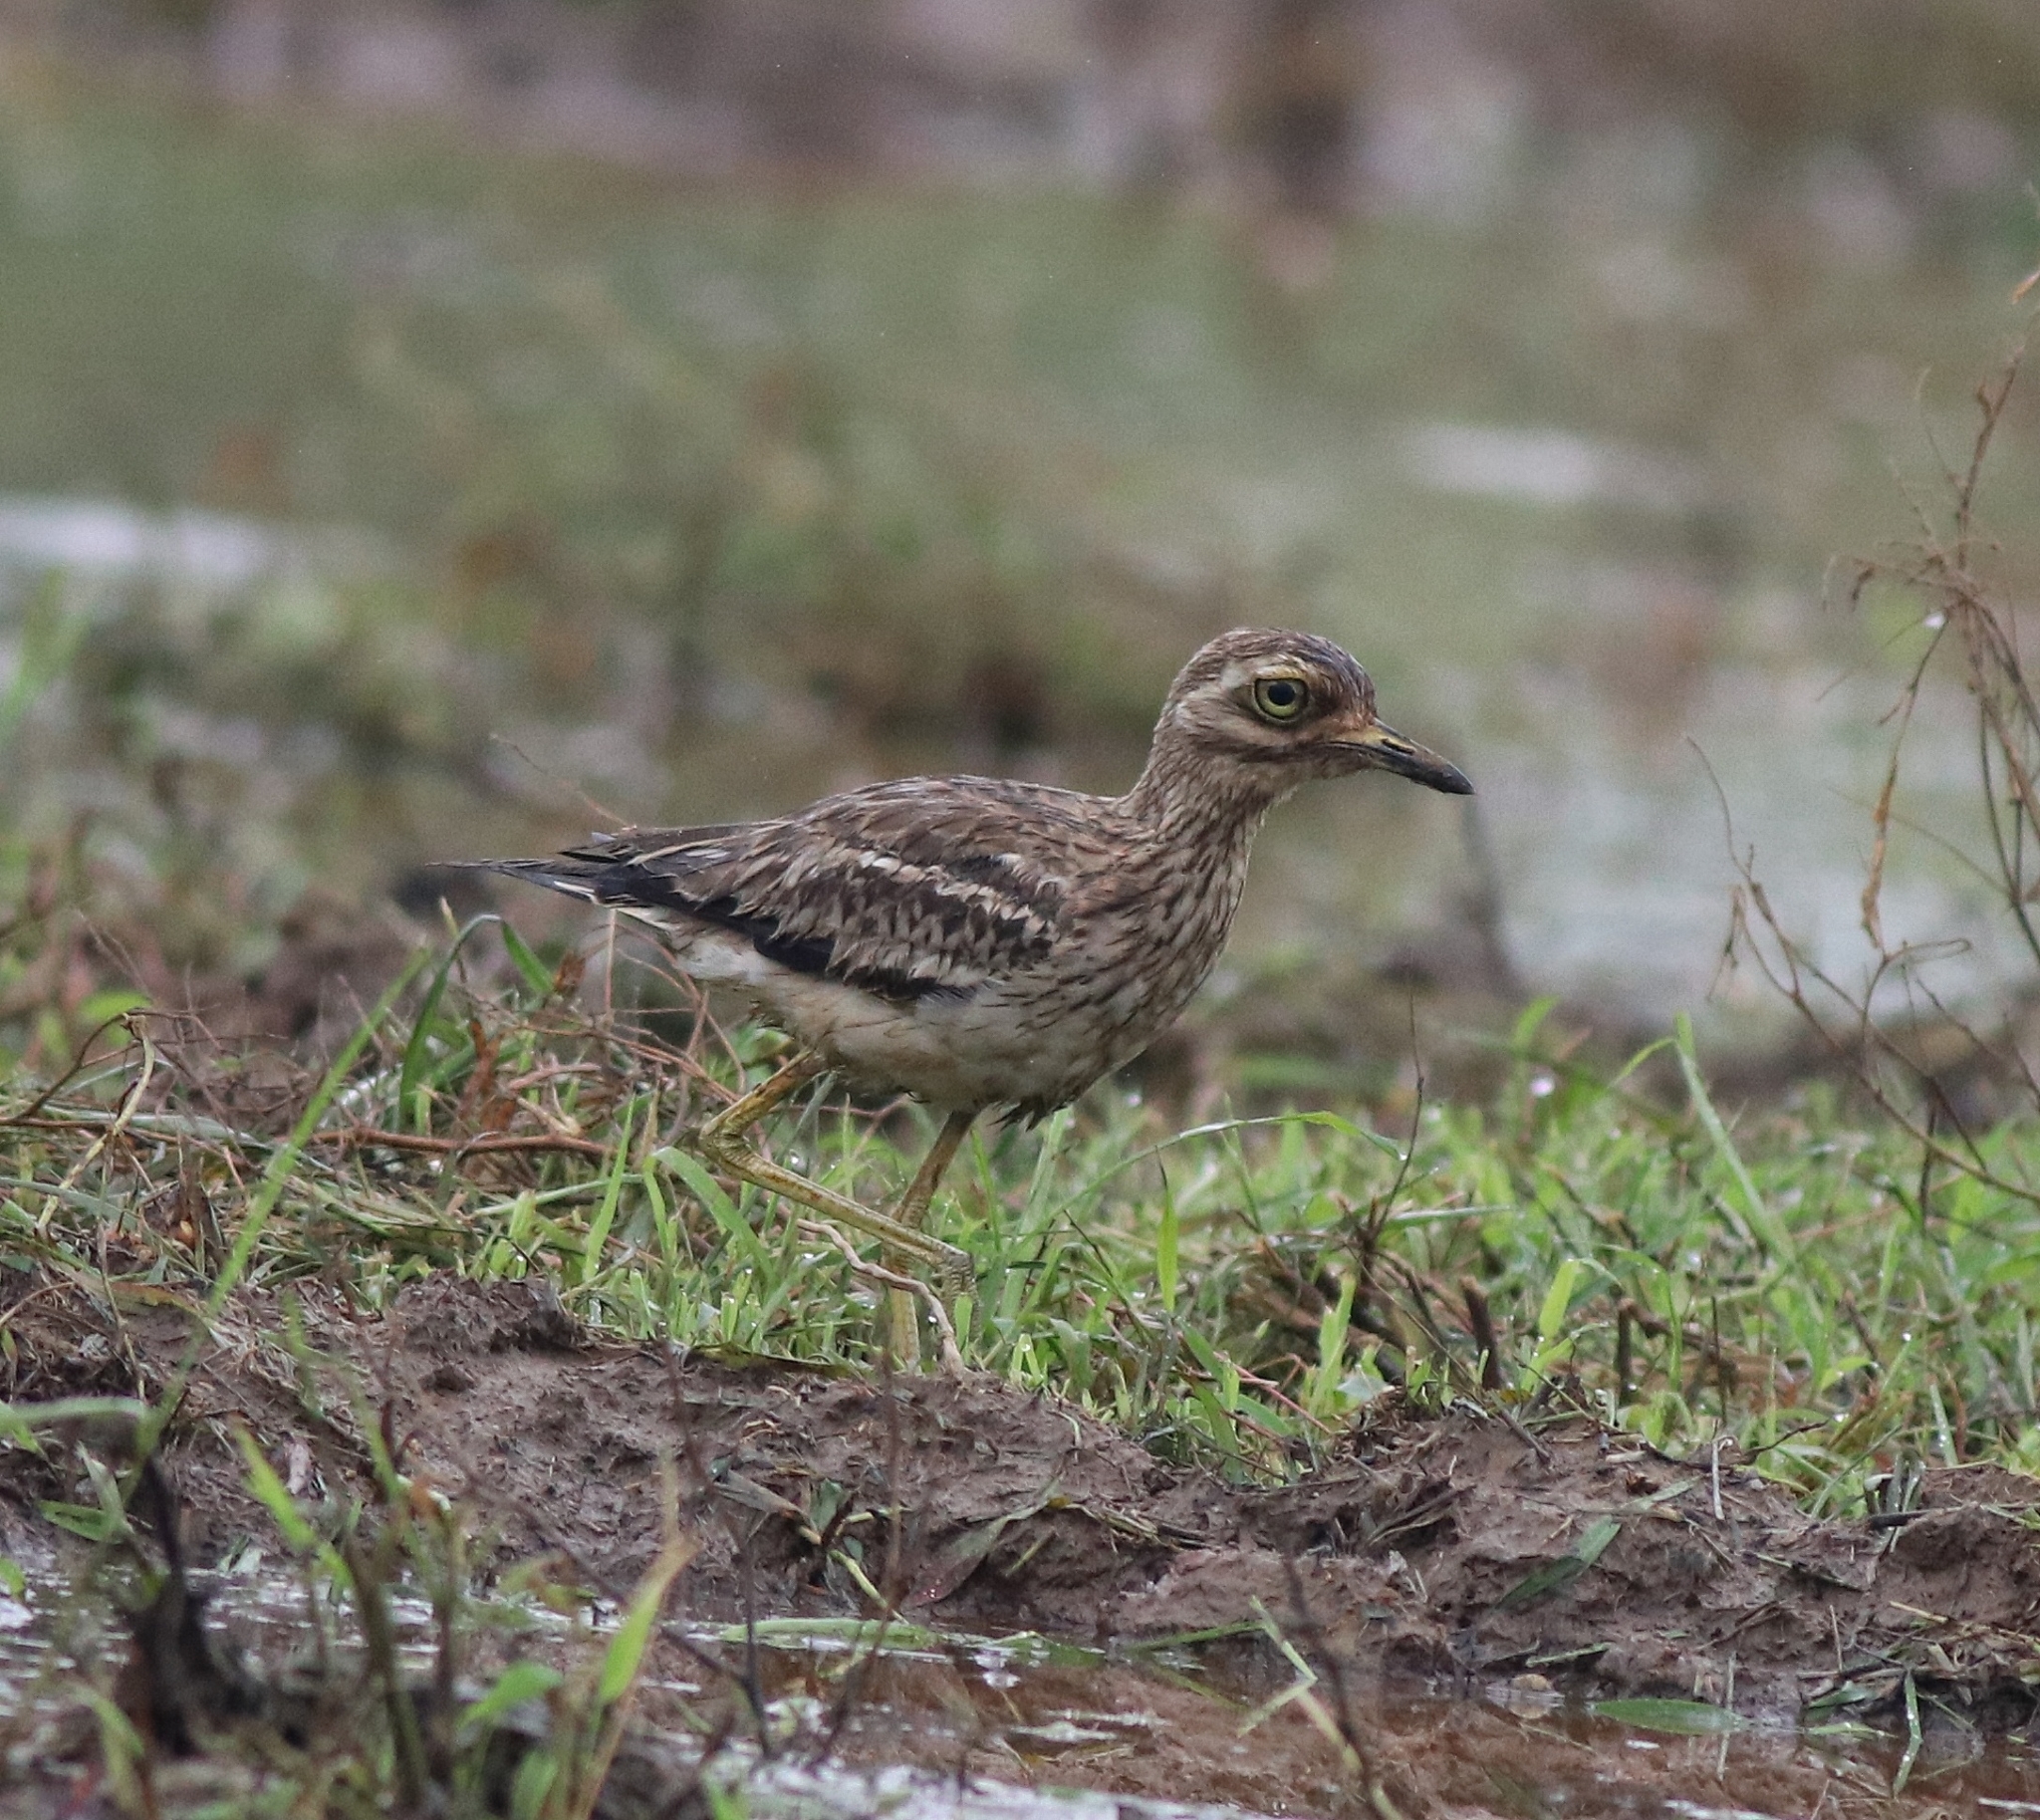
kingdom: Animalia
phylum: Chordata
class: Aves
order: Charadriiformes
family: Burhinidae
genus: Burhinus
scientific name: Burhinus indicus
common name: Indian thick-knee
